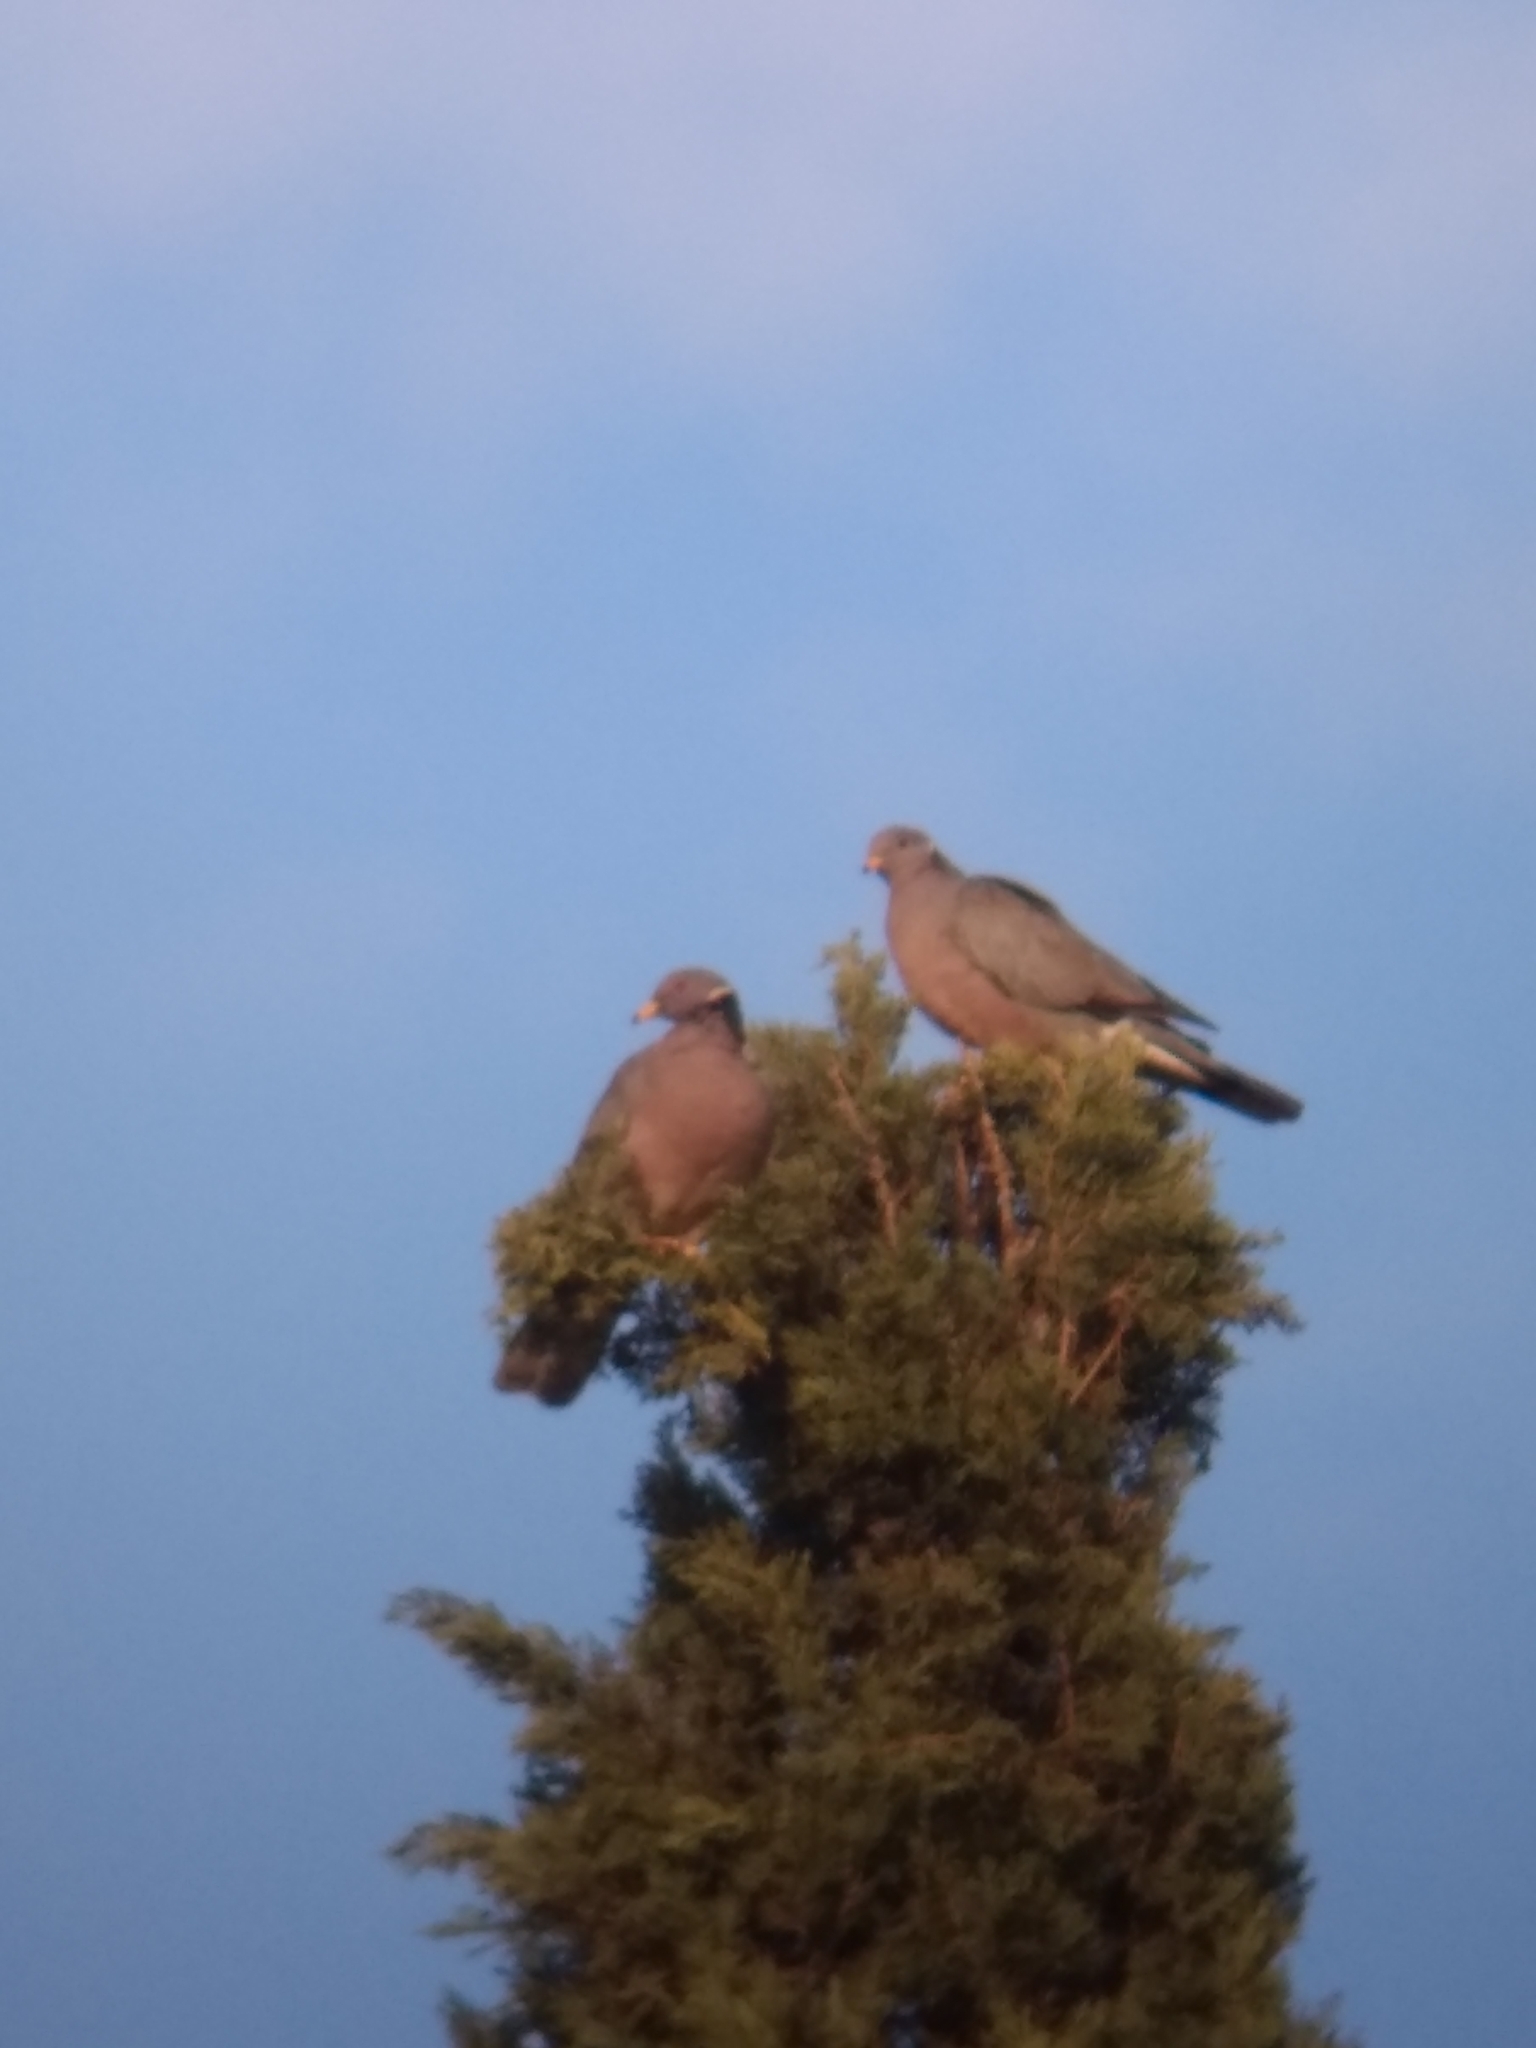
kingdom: Animalia
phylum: Chordata
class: Aves
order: Columbiformes
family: Columbidae
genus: Patagioenas
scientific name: Patagioenas fasciata
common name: Band-tailed pigeon
